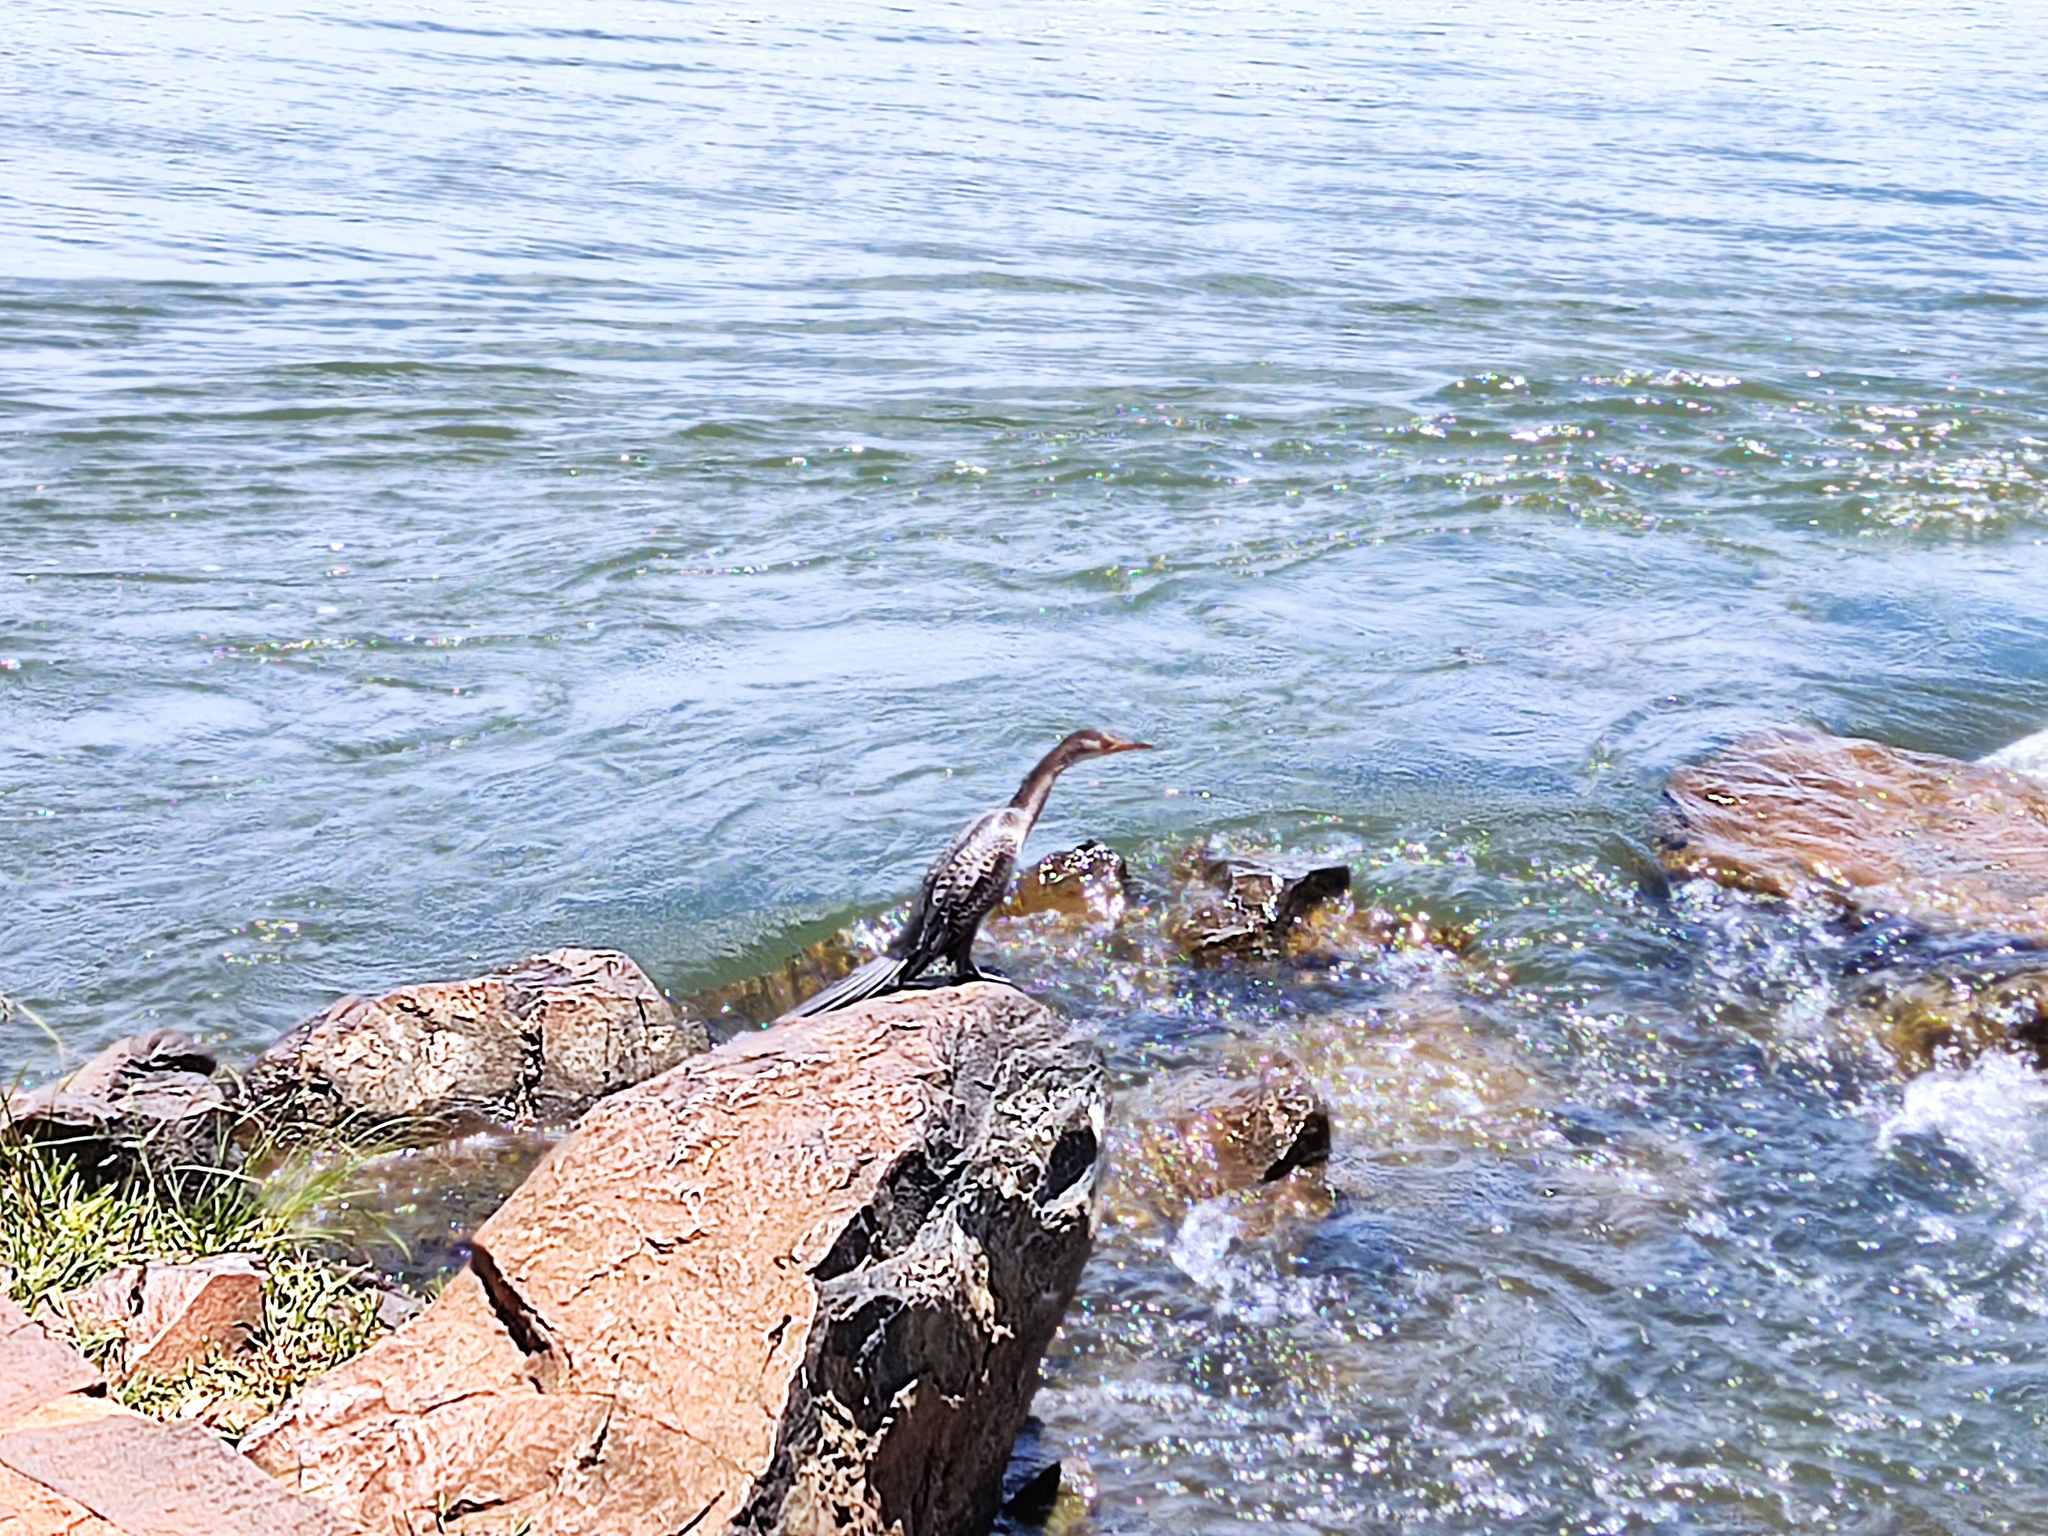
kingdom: Animalia
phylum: Chordata
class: Aves
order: Suliformes
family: Phalacrocoracidae
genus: Microcarbo
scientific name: Microcarbo africanus
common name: Long-tailed cormorant
